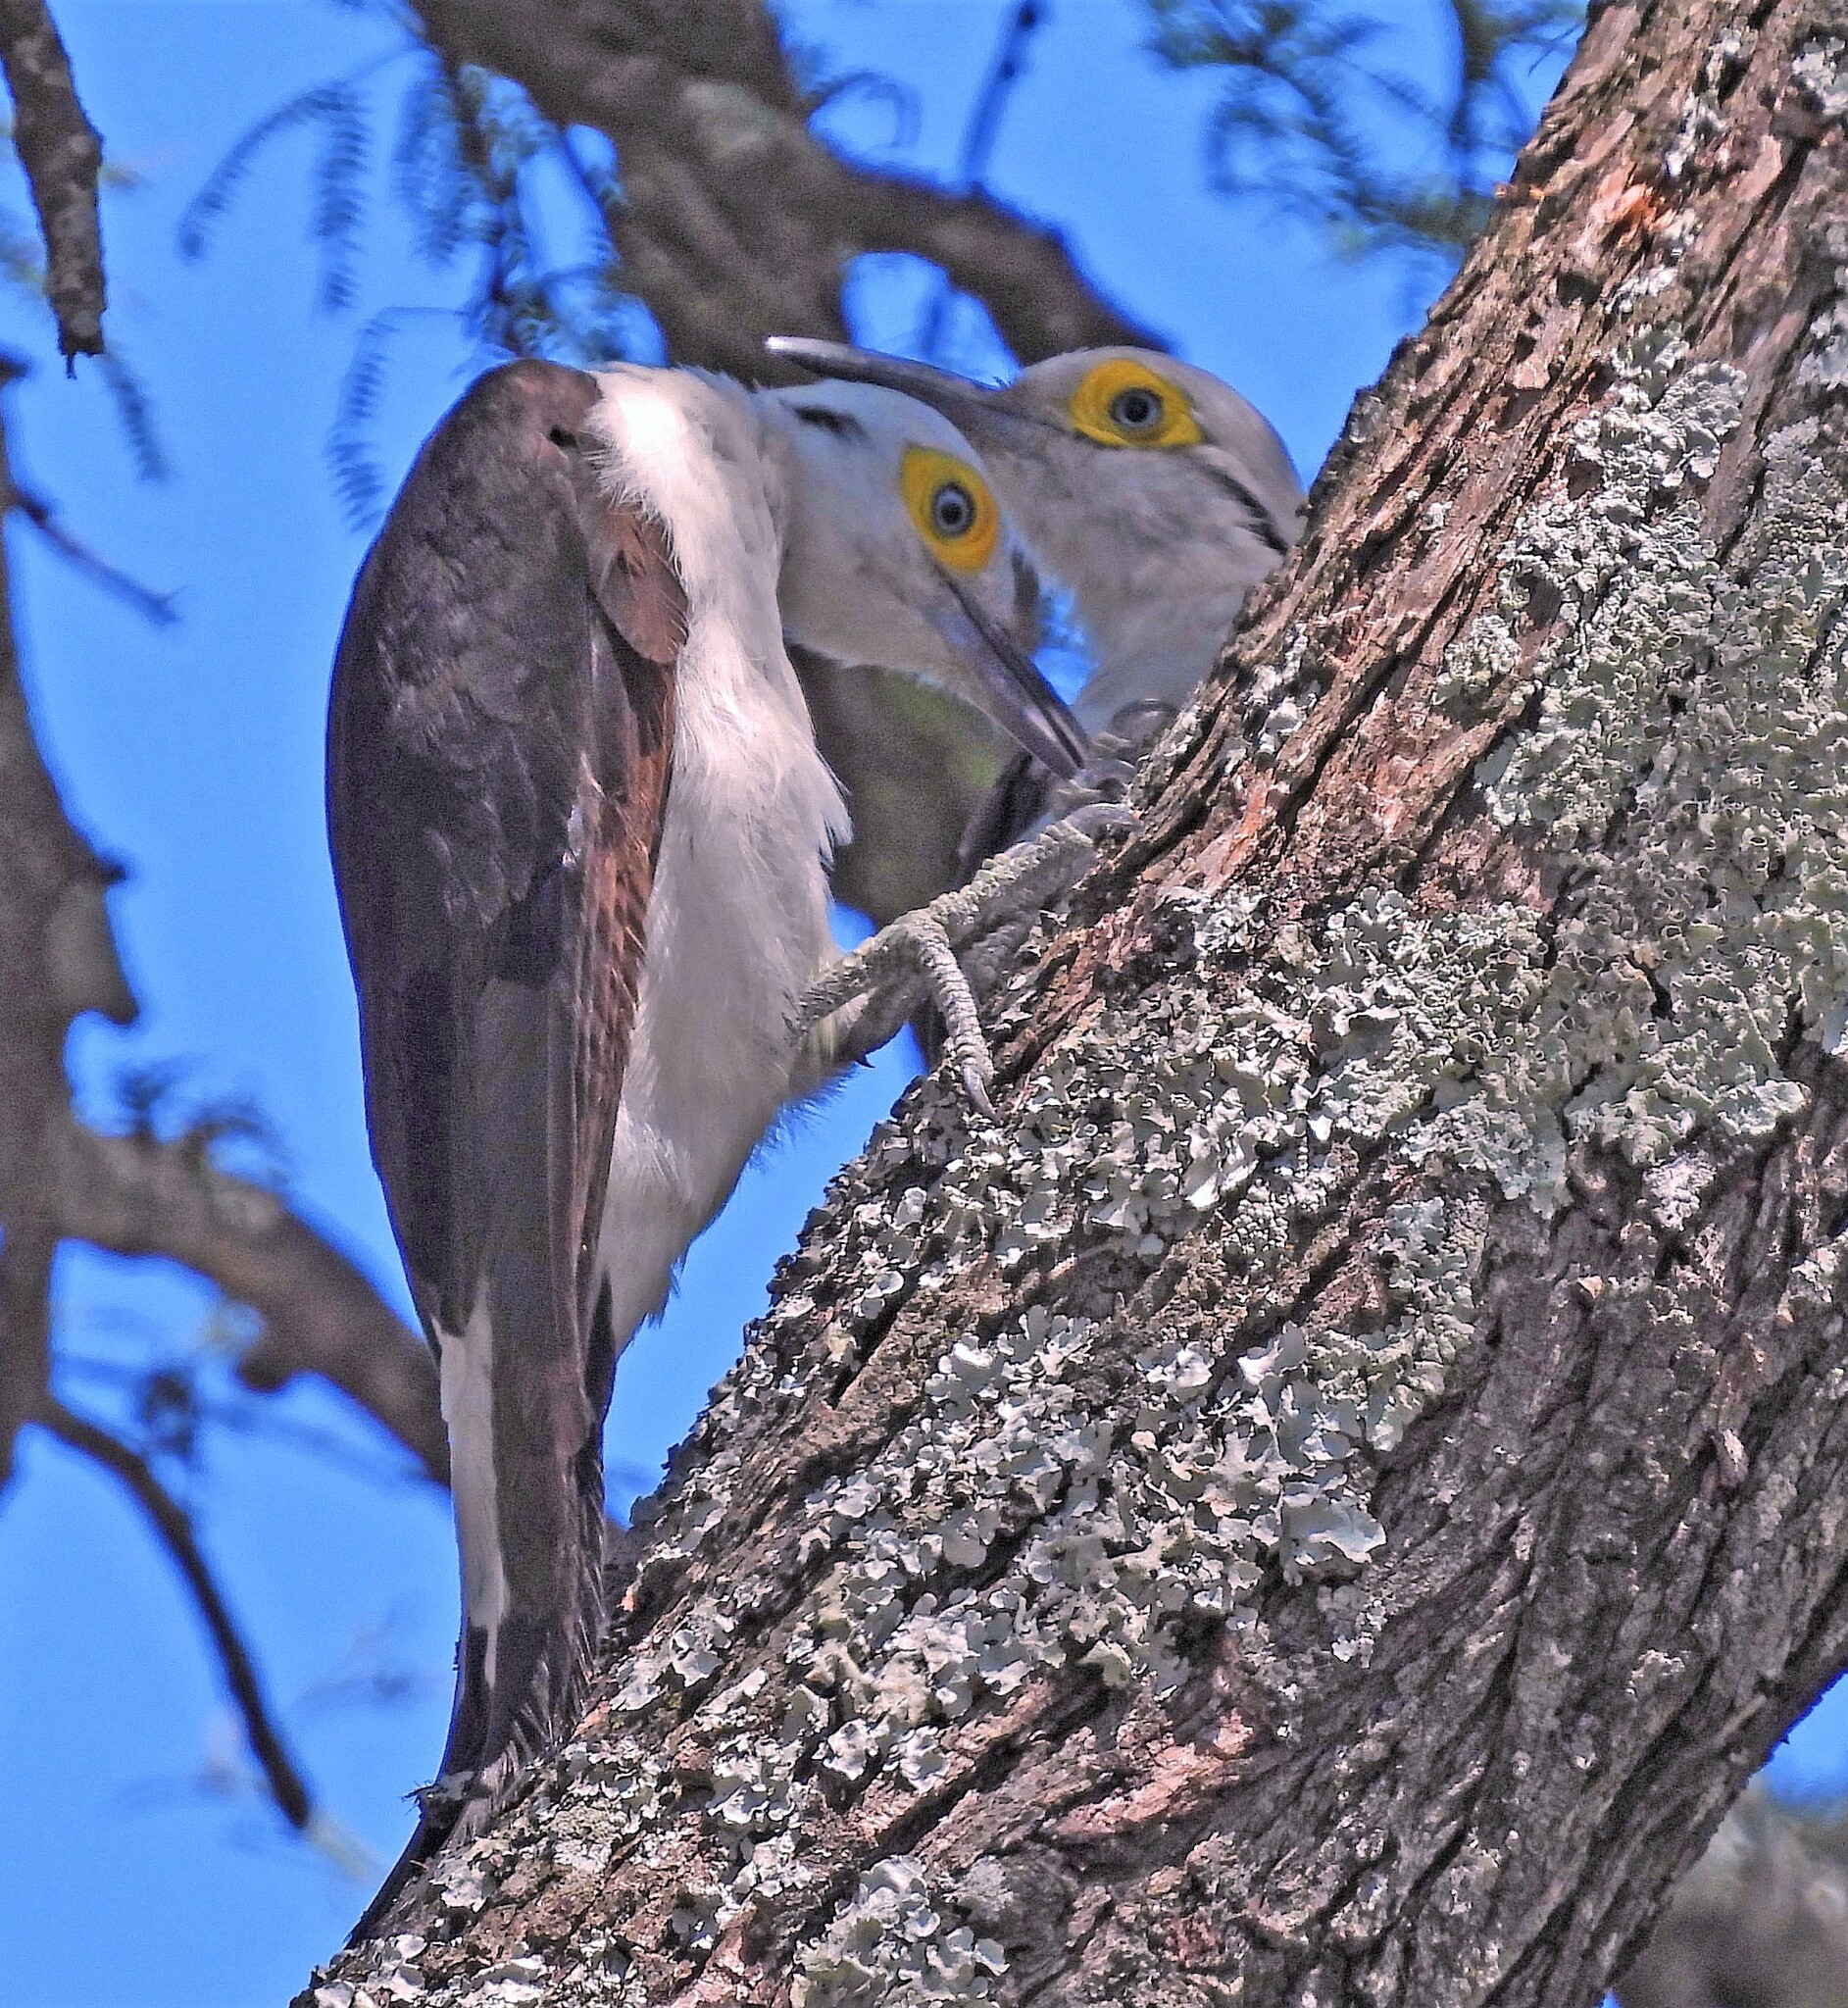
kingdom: Animalia
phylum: Chordata
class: Aves
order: Piciformes
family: Picidae
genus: Melanerpes
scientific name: Melanerpes candidus
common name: White woodpecker
